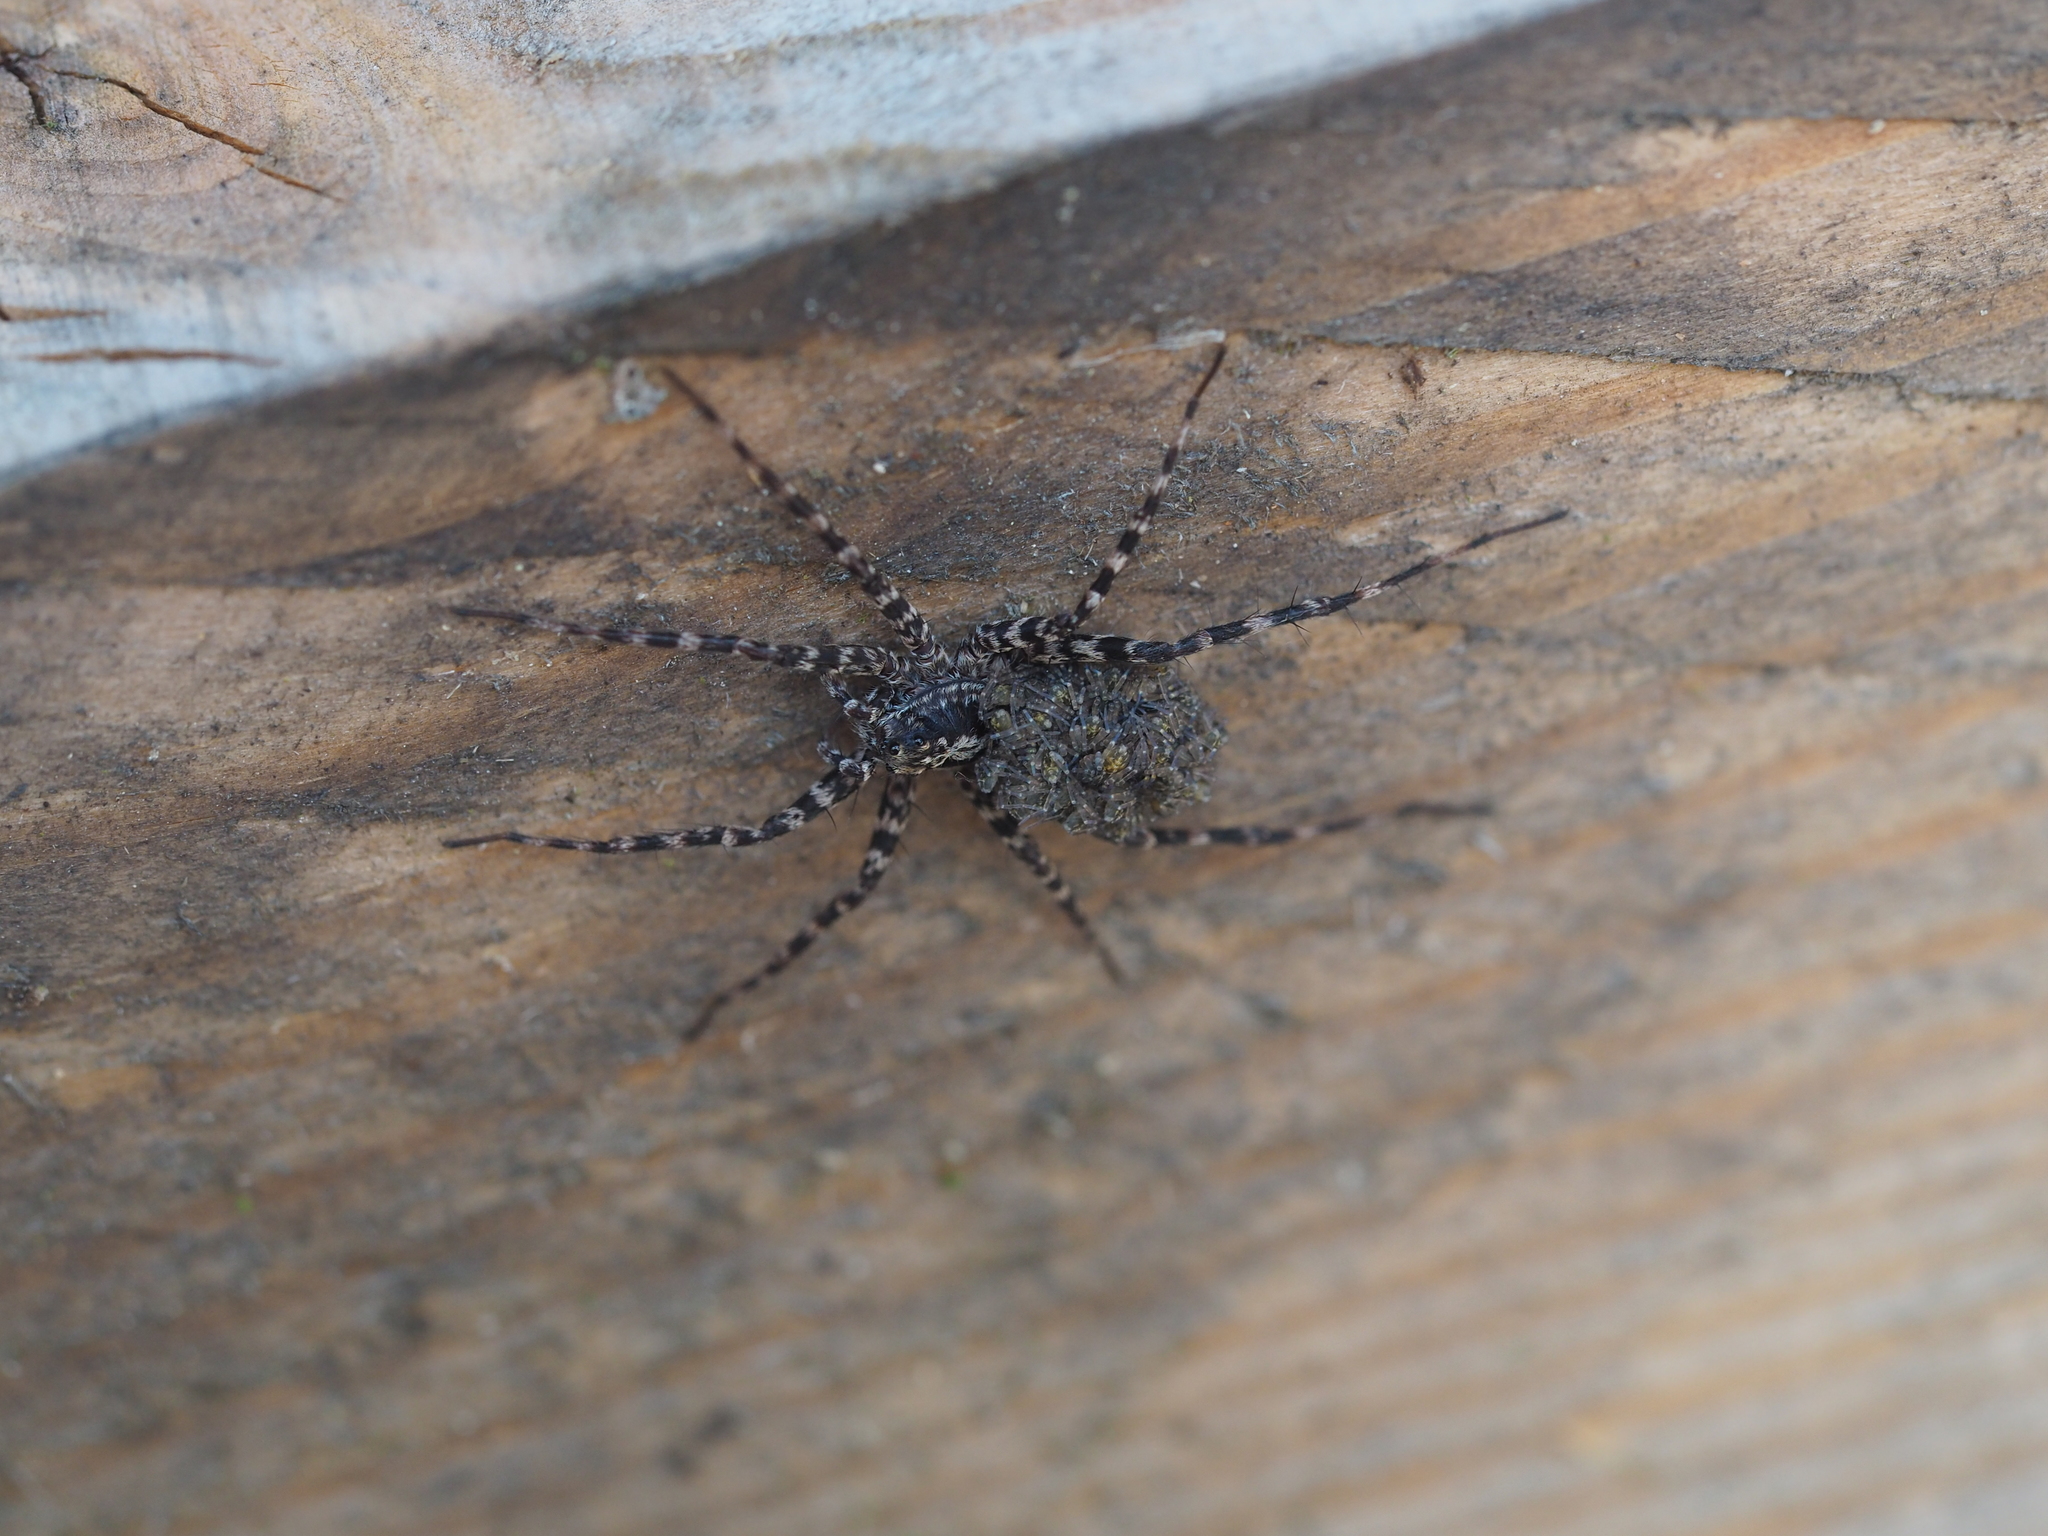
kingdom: Animalia
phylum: Arthropoda
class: Arachnida
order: Araneae
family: Lycosidae
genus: Acantholycosa
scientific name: Acantholycosa lignaria
